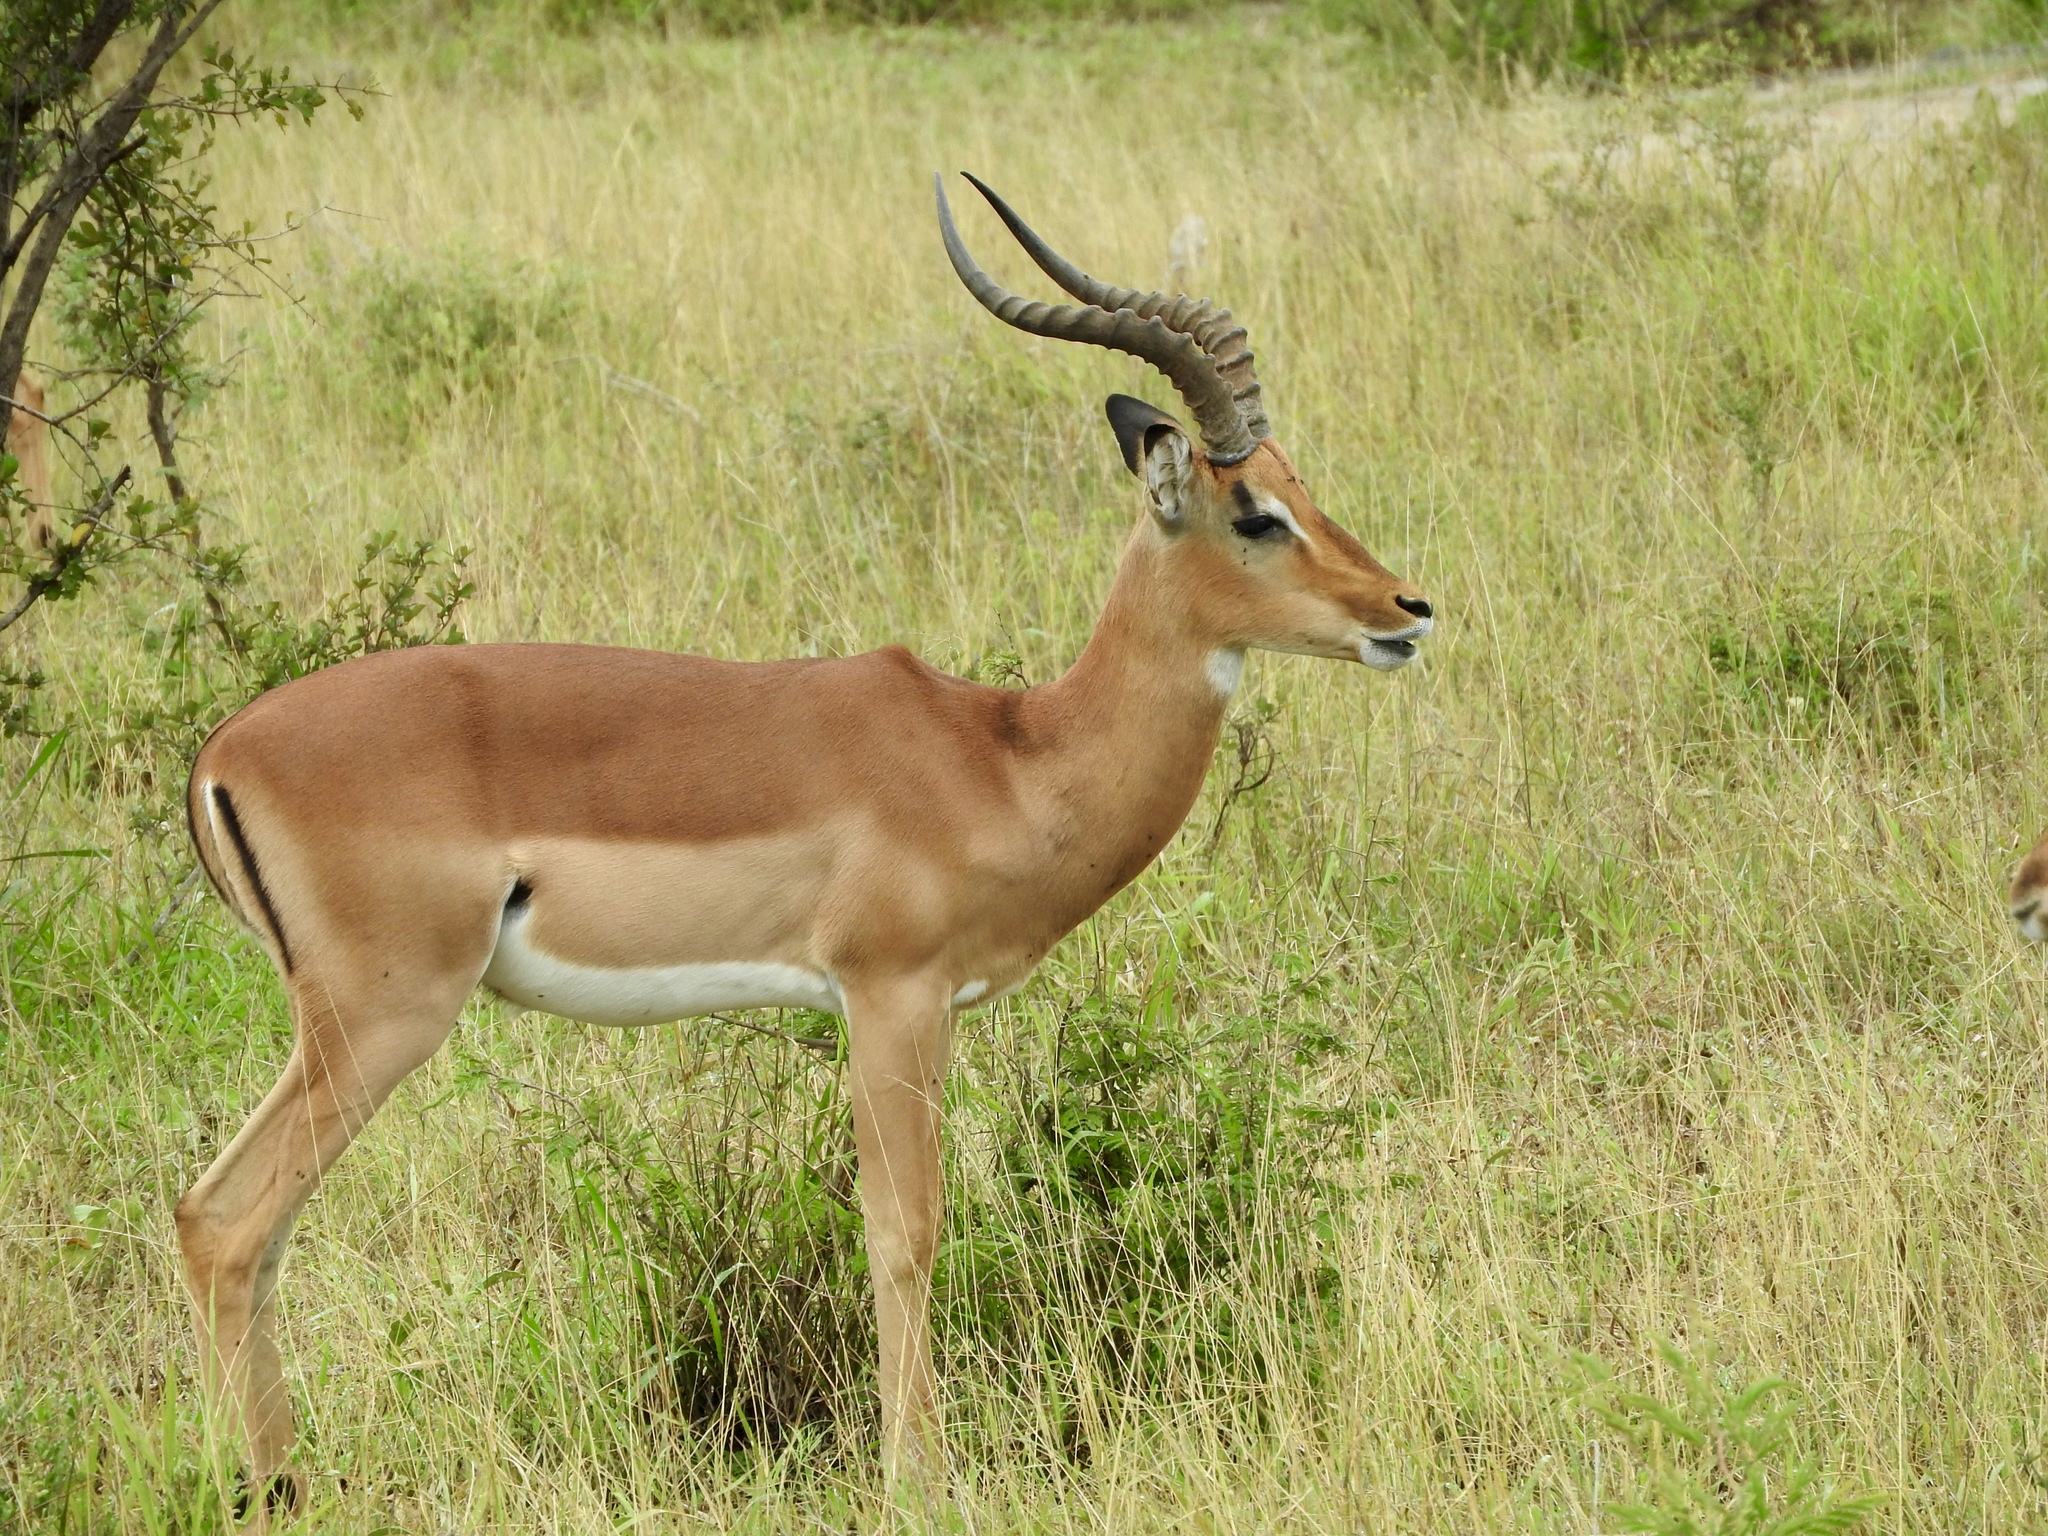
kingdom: Animalia
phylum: Chordata
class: Mammalia
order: Artiodactyla
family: Bovidae
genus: Aepyceros
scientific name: Aepyceros melampus
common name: Impala
